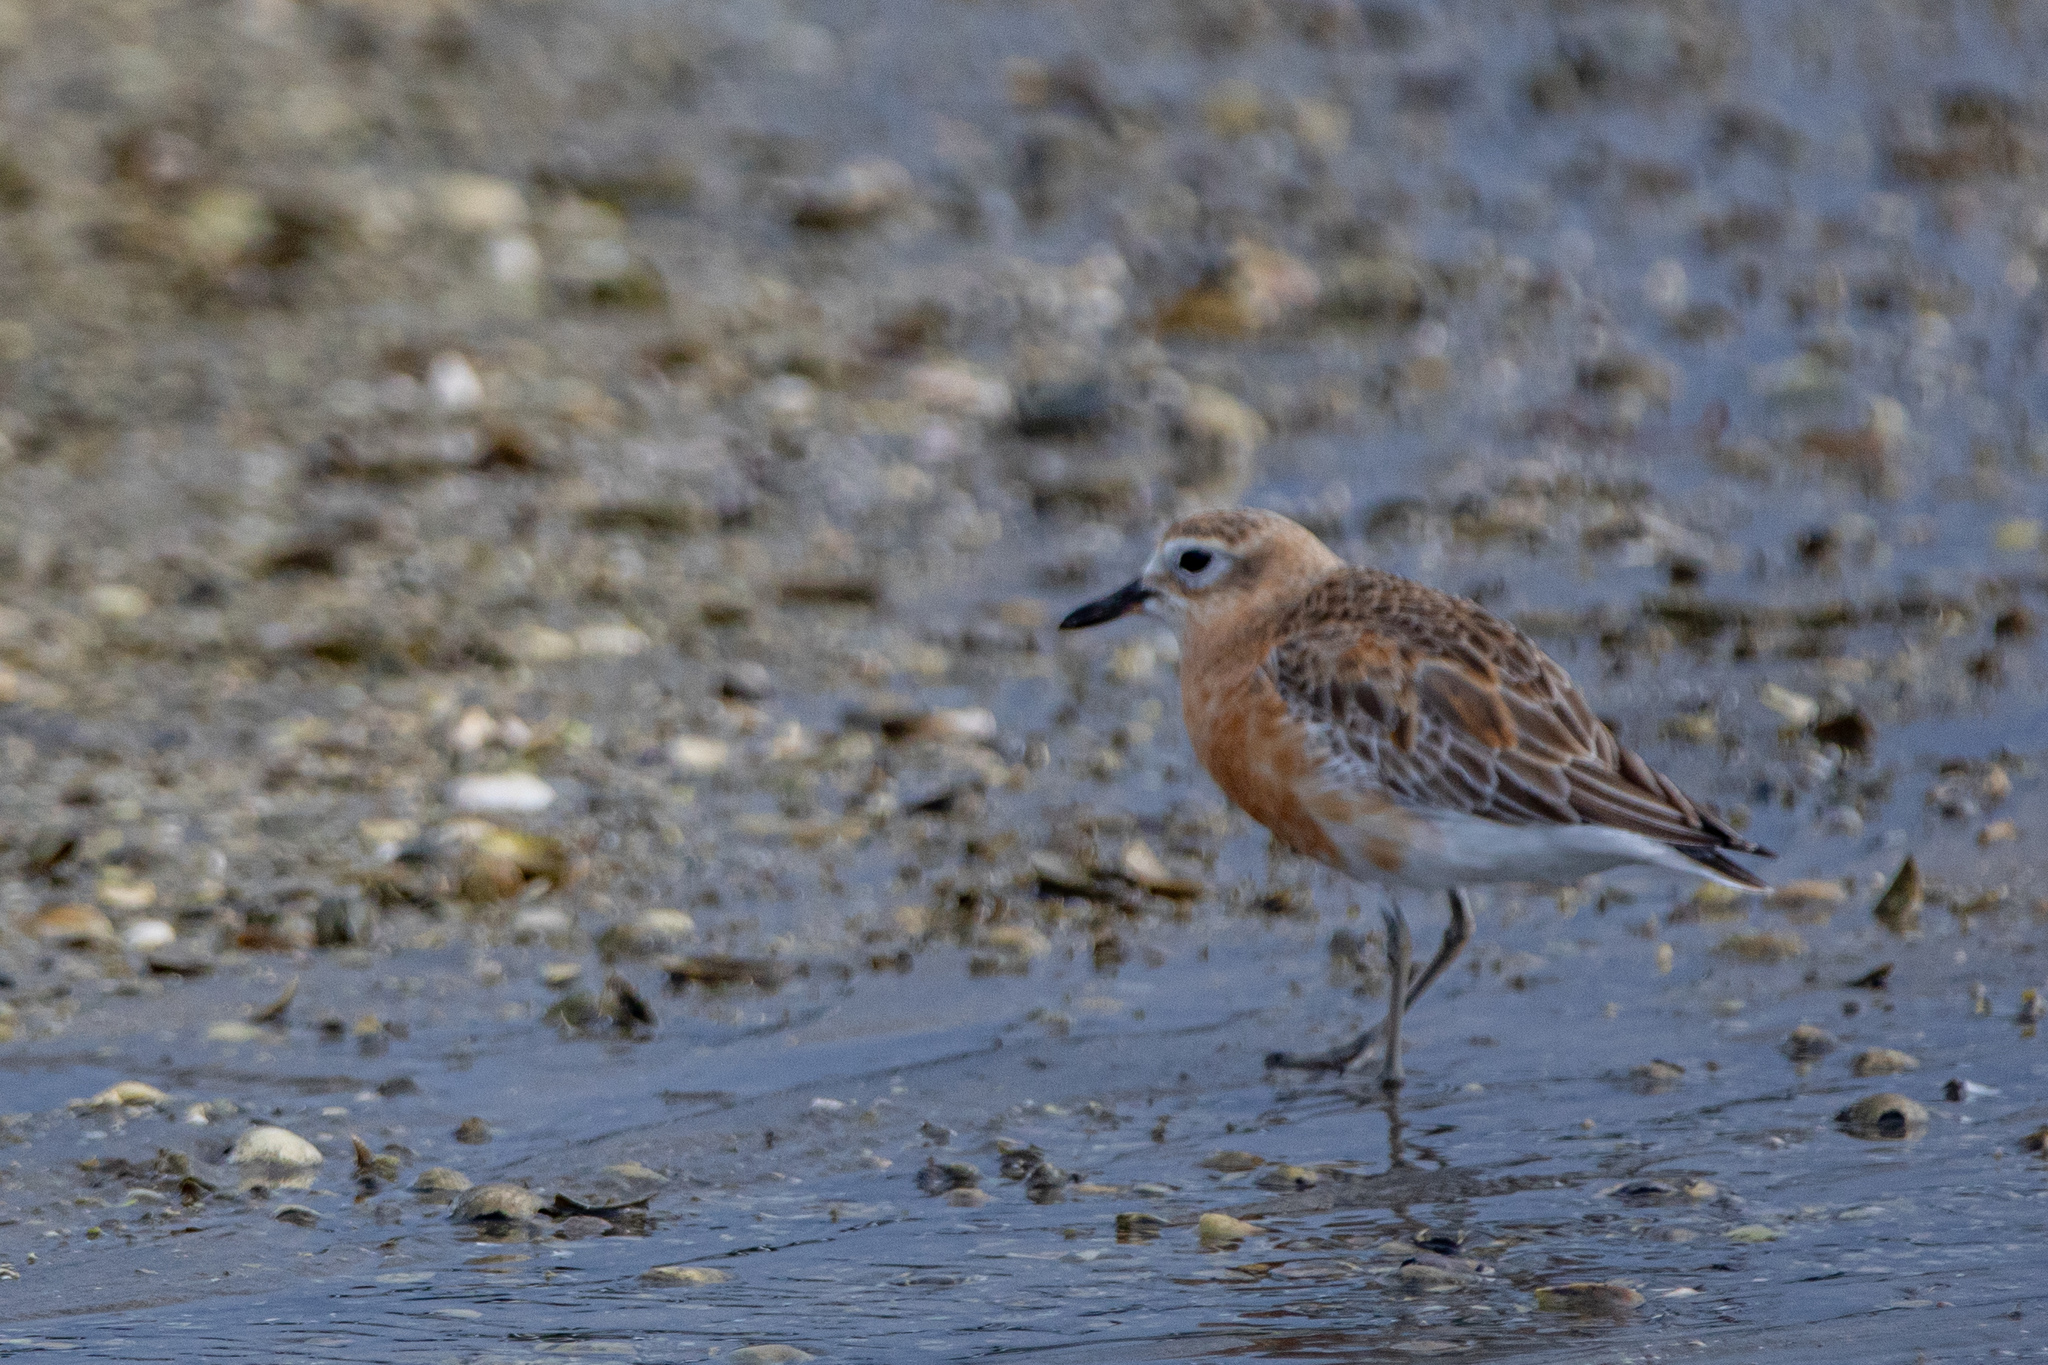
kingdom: Animalia
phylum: Chordata
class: Aves
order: Charadriiformes
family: Charadriidae
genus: Anarhynchus
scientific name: Anarhynchus
